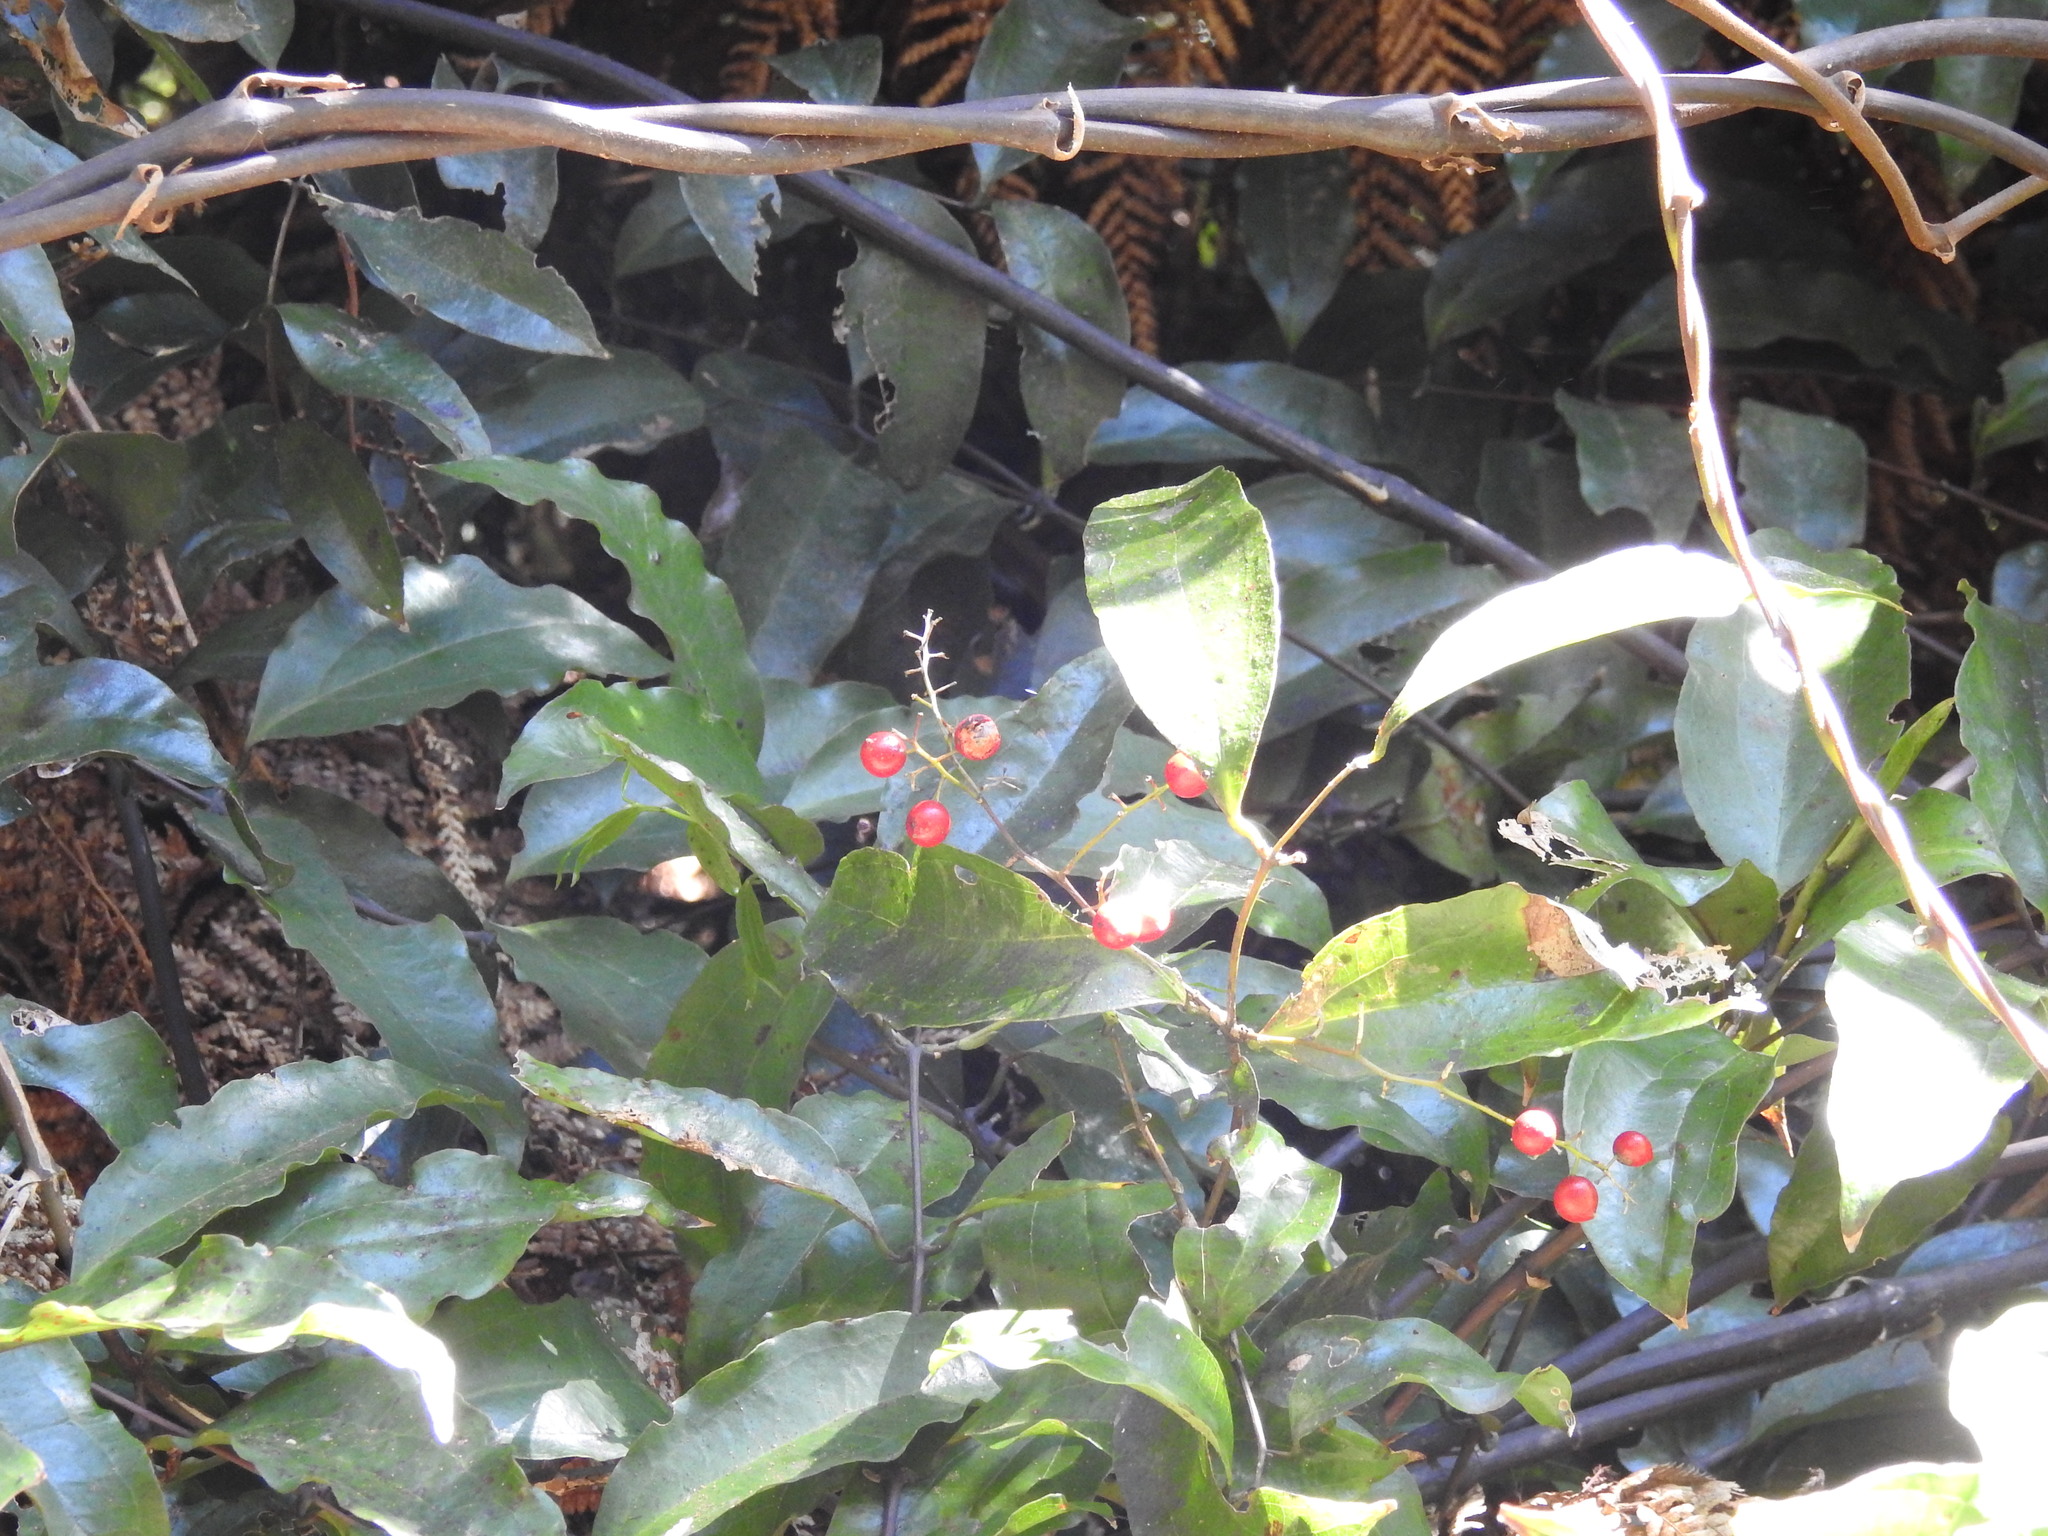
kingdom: Plantae
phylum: Tracheophyta
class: Liliopsida
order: Liliales
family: Ripogonaceae
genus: Ripogonum
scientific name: Ripogonum scandens
